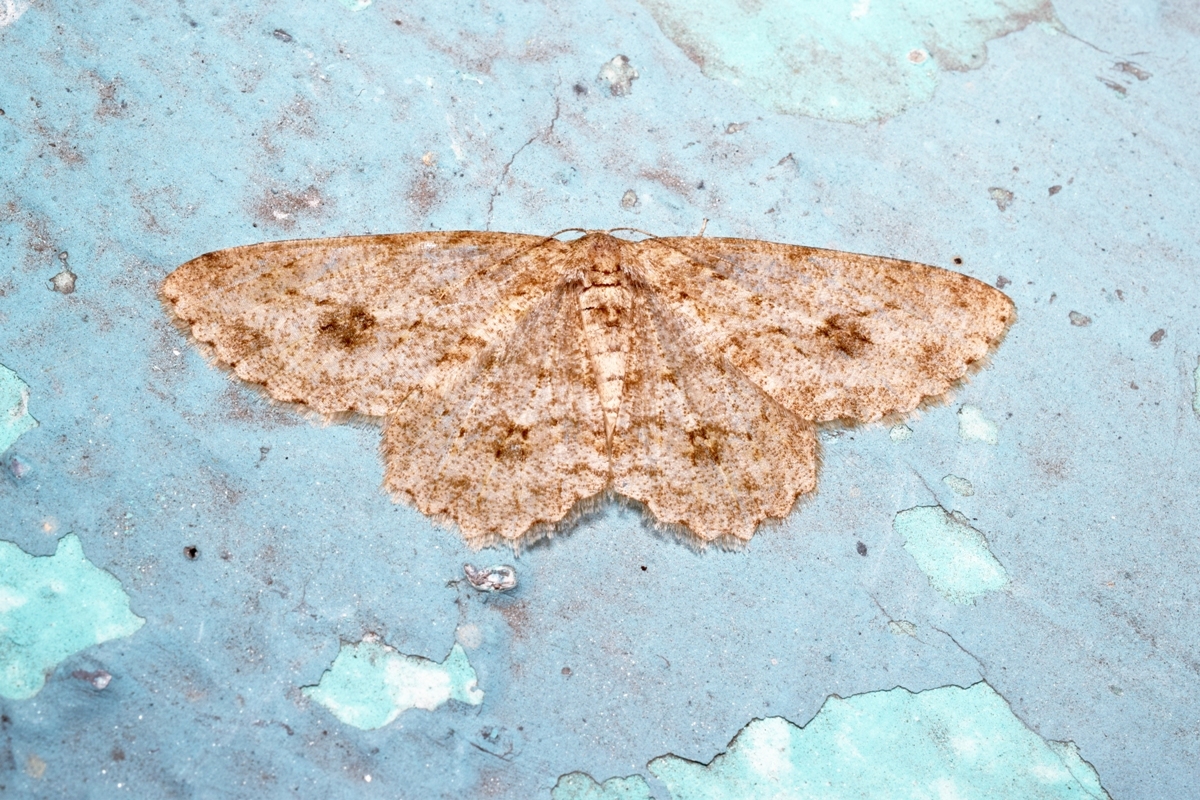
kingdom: Animalia
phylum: Arthropoda
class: Insecta
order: Lepidoptera
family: Geometridae
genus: Ectropis
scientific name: Ectropis bhurmitra
